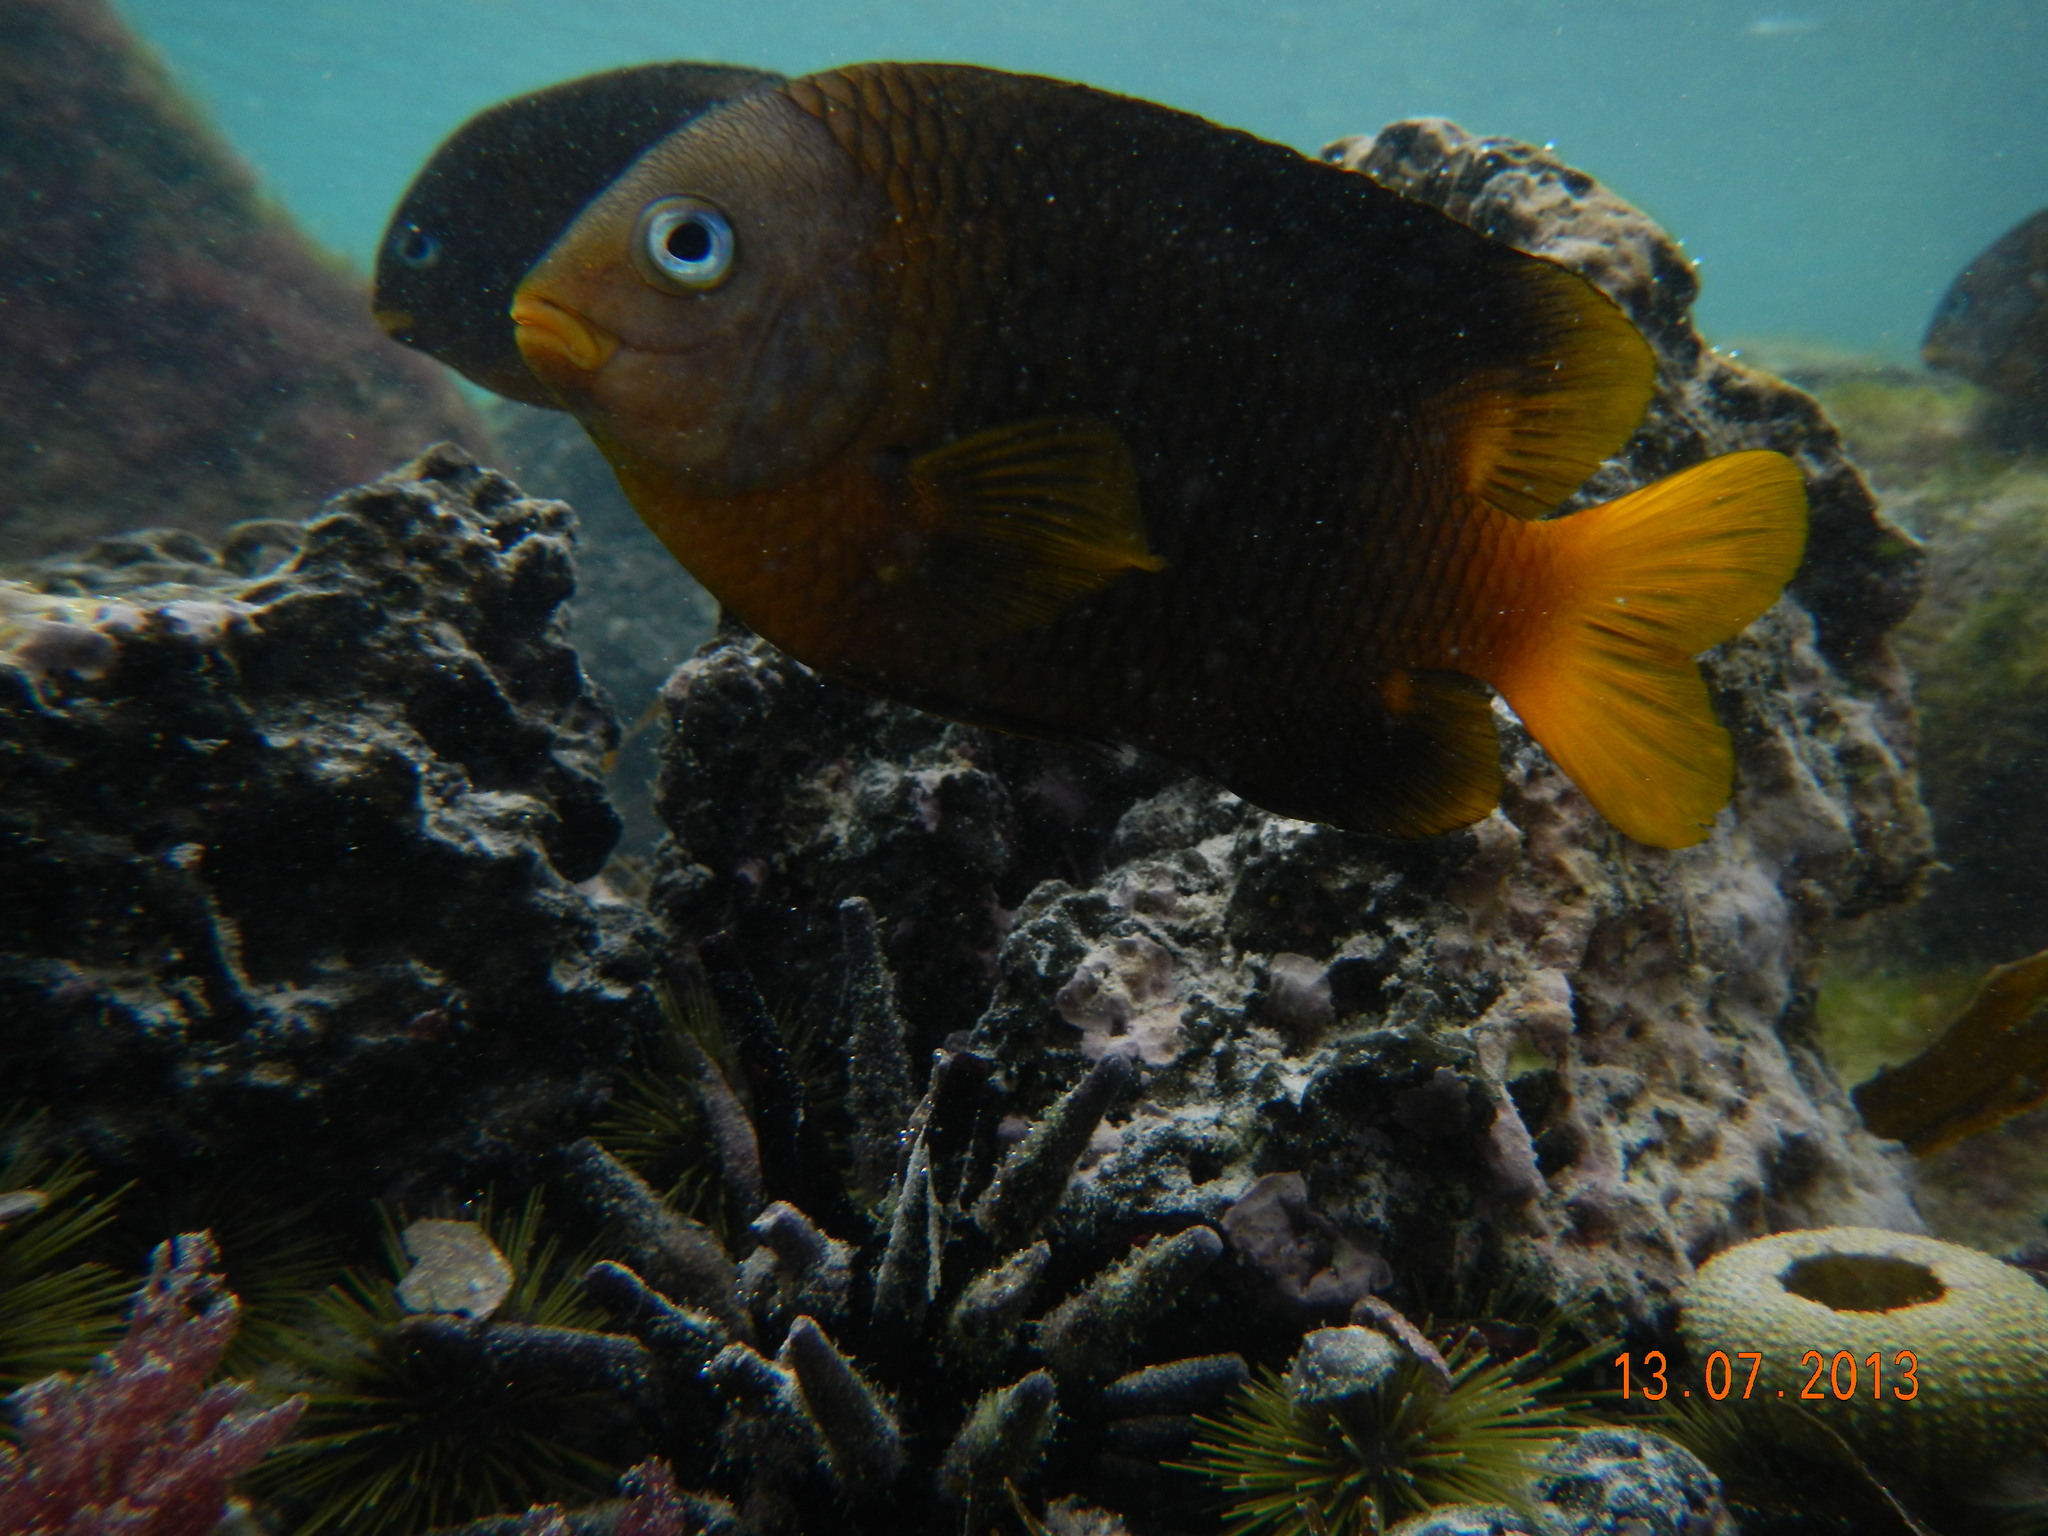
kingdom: Animalia
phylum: Chordata
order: Perciformes
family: Pomacentridae
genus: Stegastes
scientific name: Stegastes arcifrons
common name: Galapagos gregory
